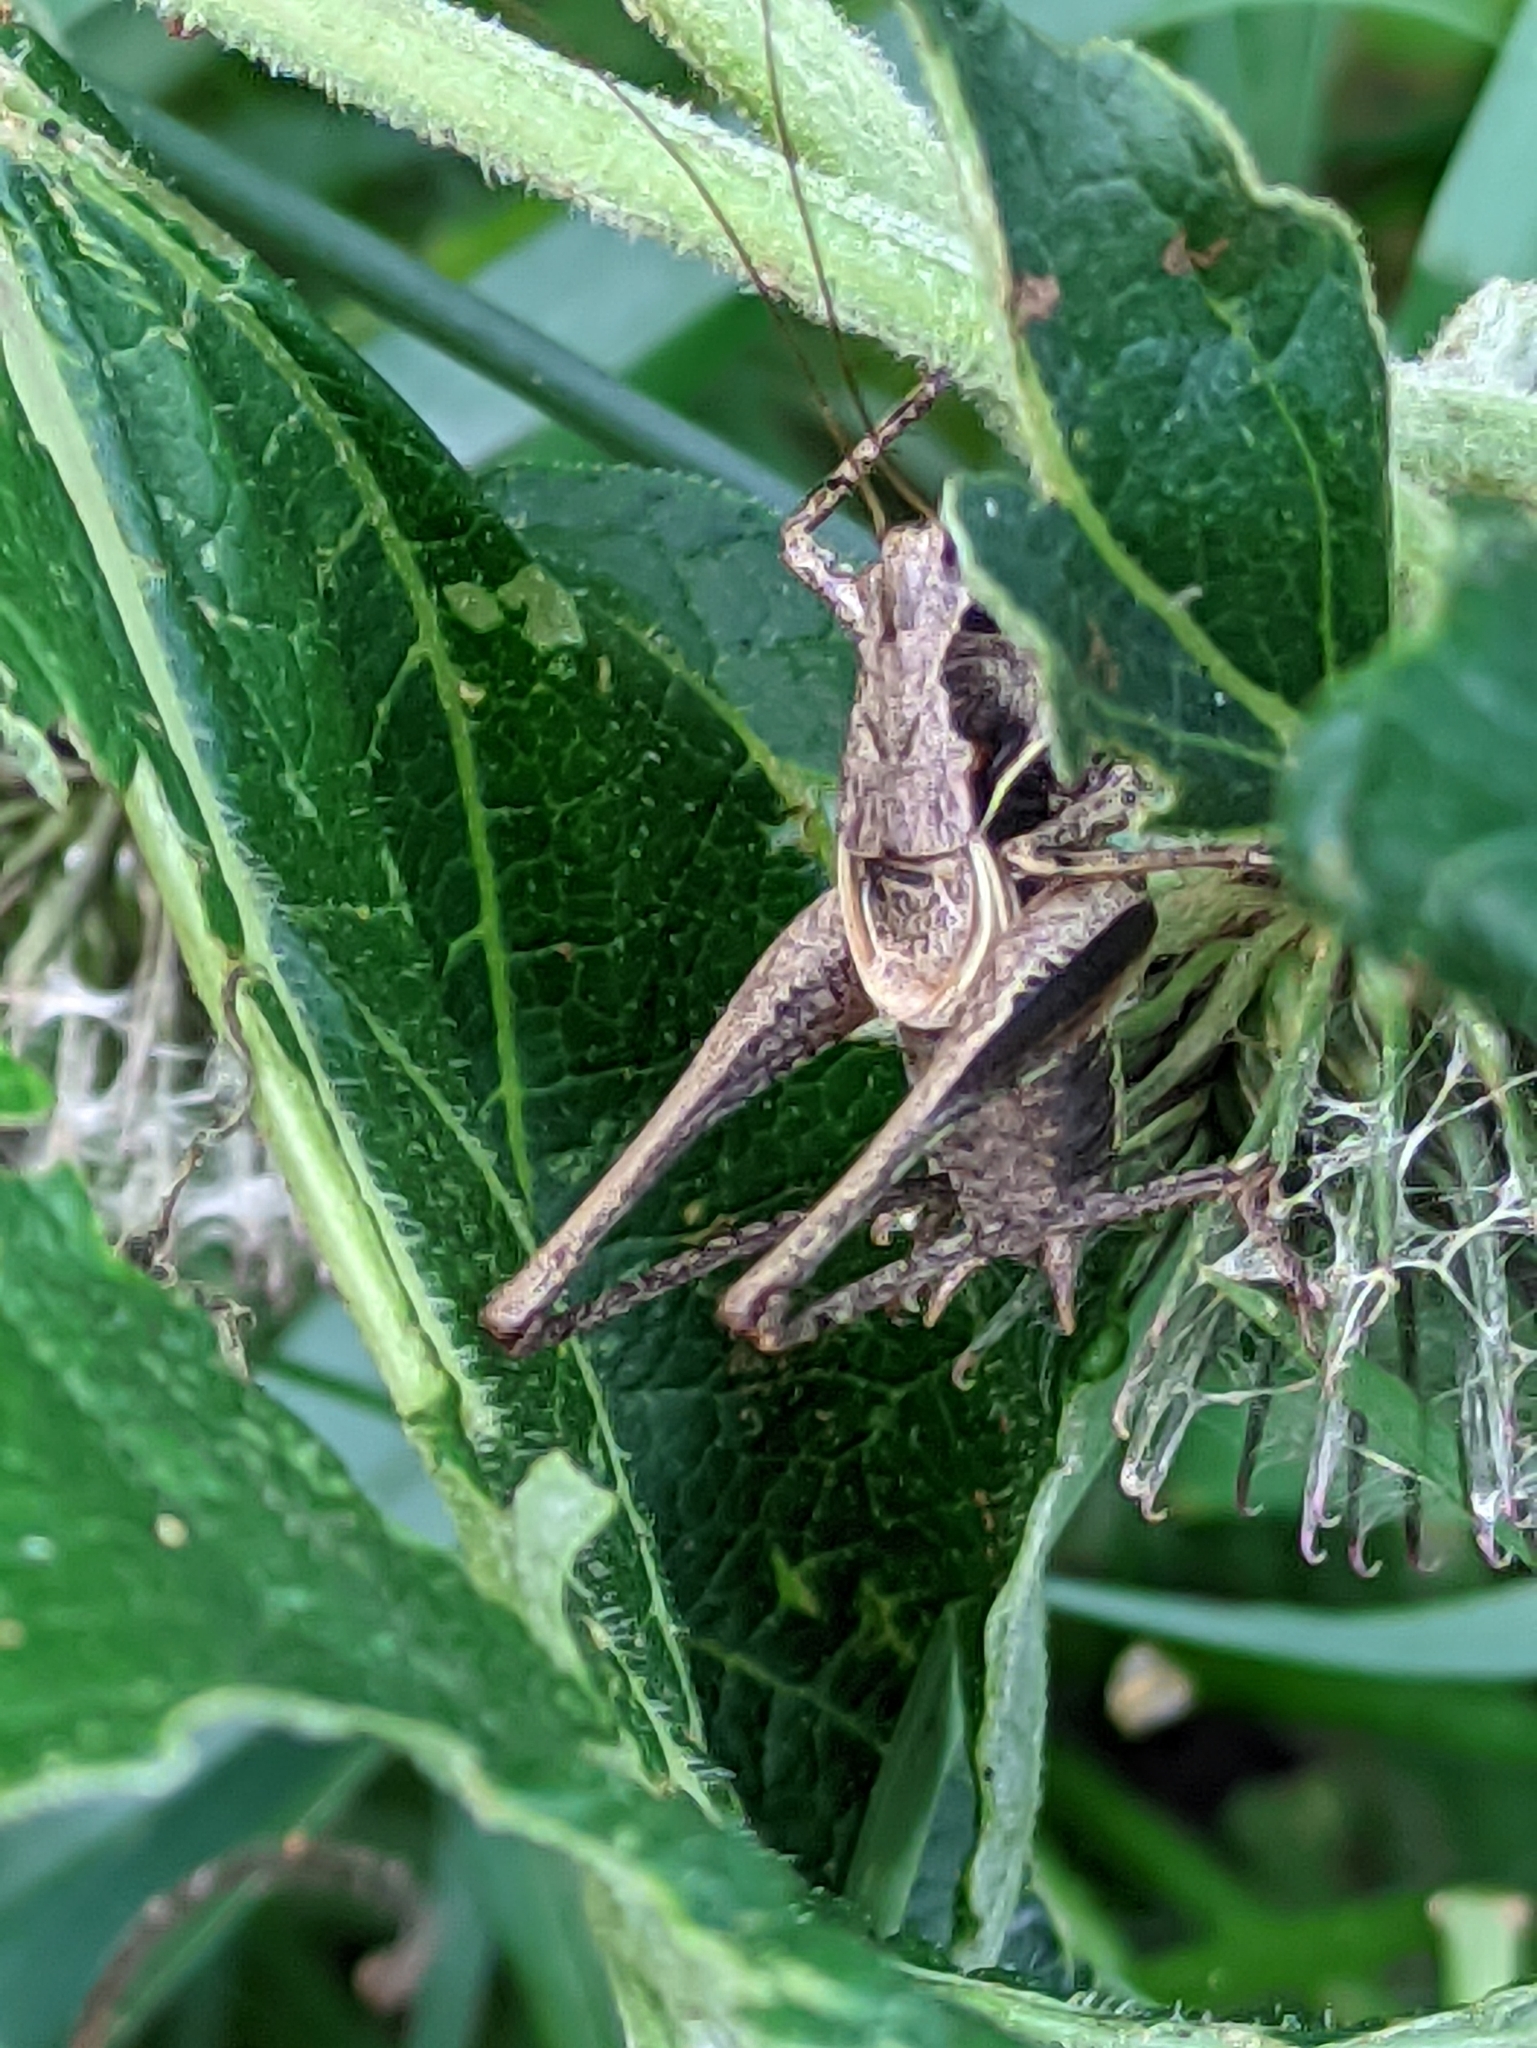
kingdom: Animalia
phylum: Arthropoda
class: Insecta
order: Orthoptera
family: Tettigoniidae
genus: Pholidoptera
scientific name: Pholidoptera griseoaptera
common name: Dark bush-cricket
